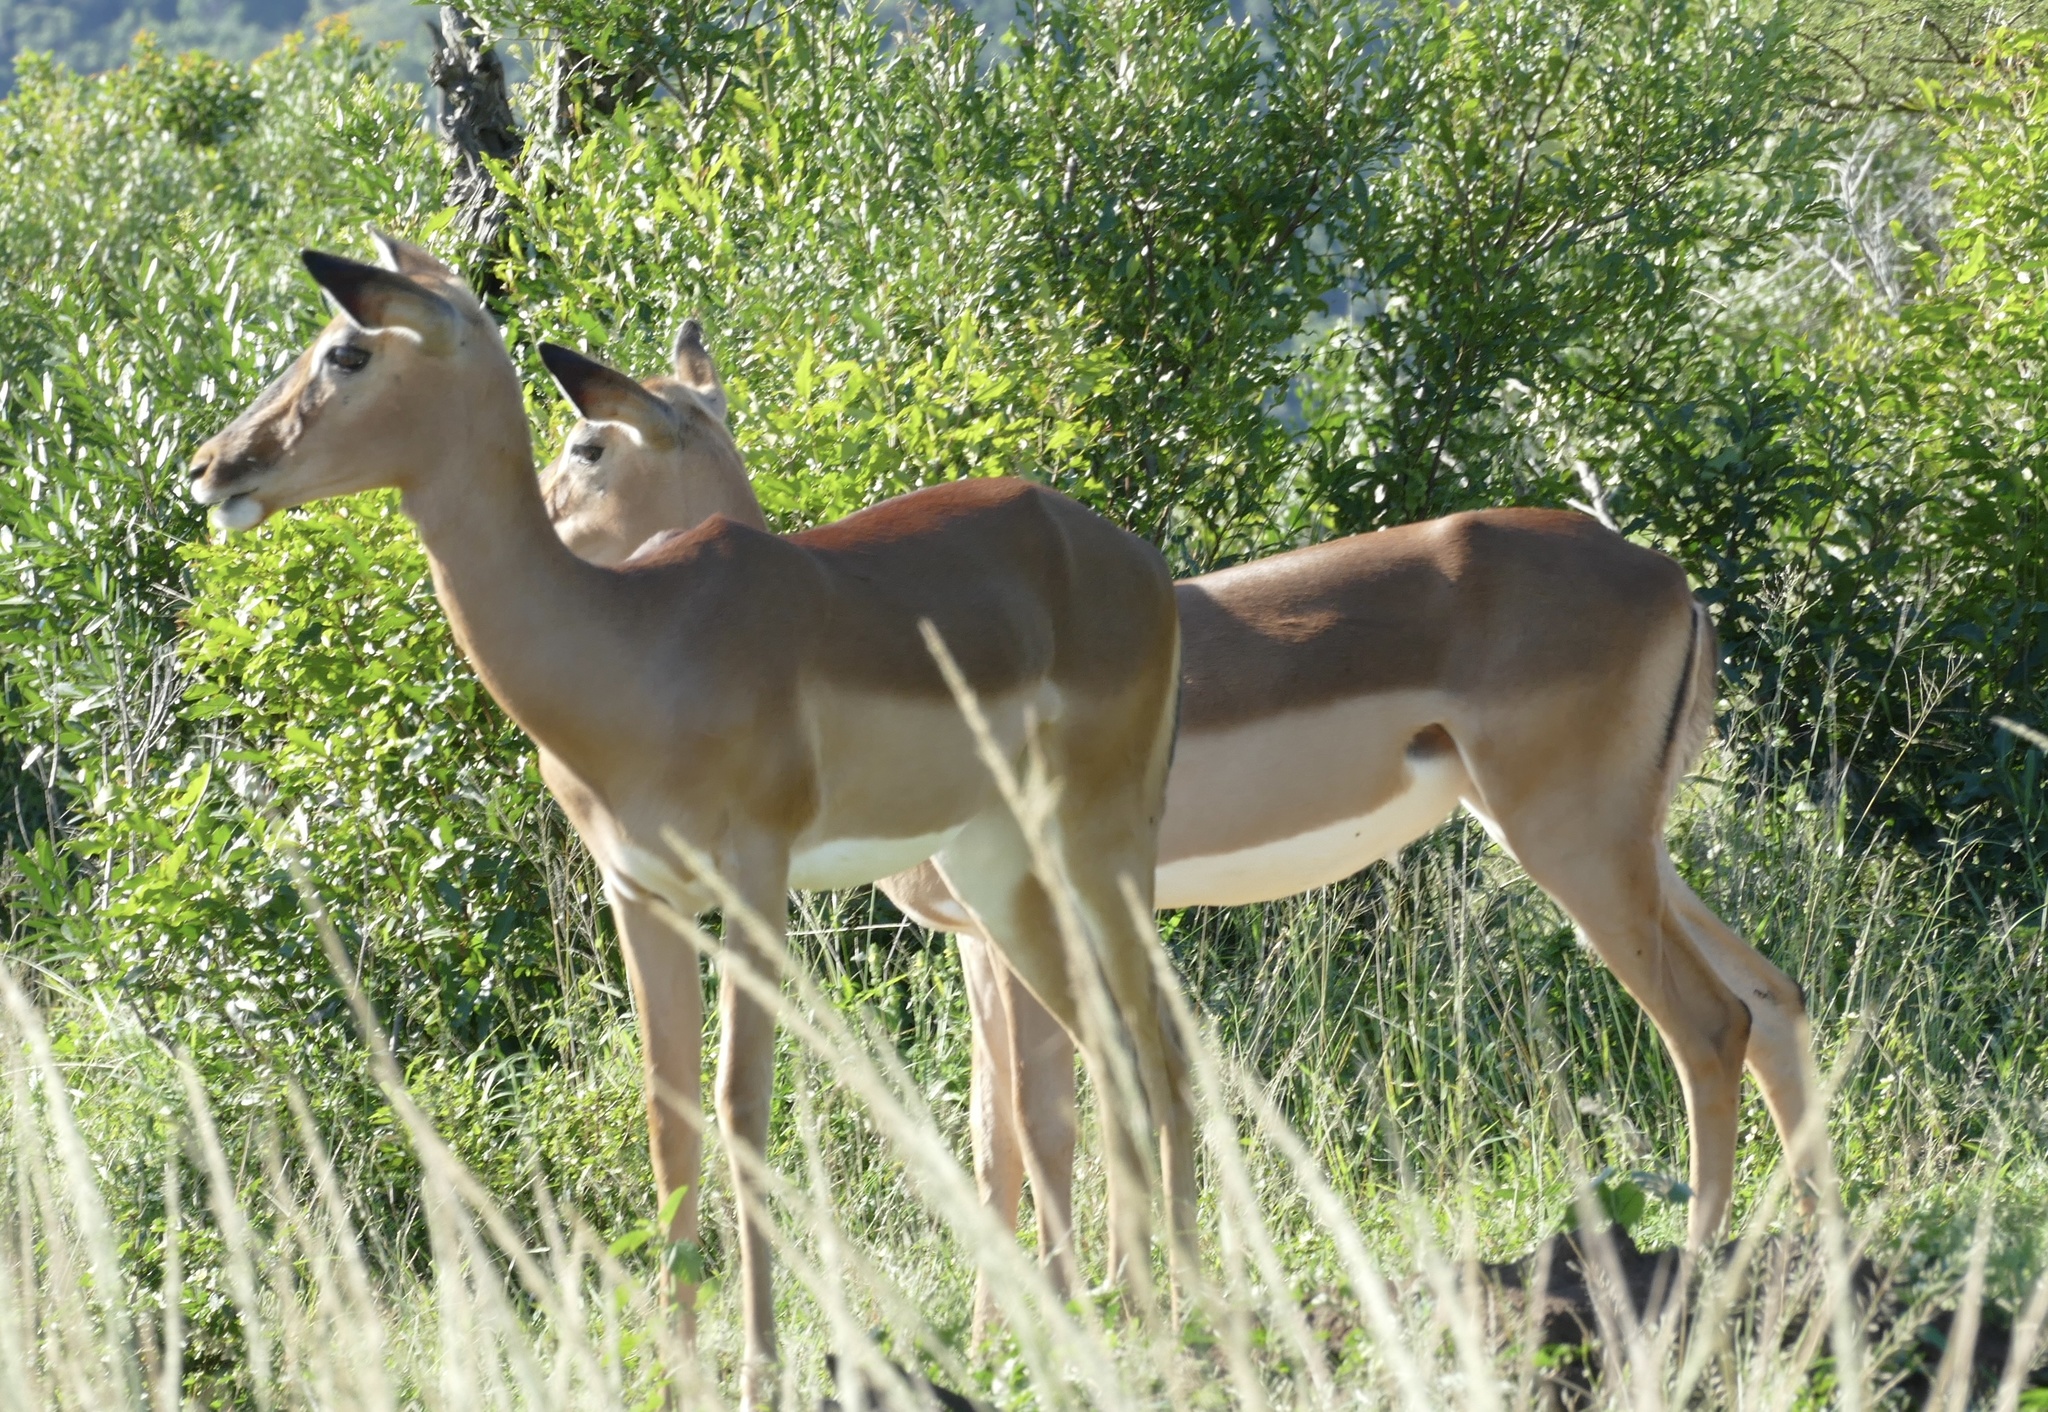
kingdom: Animalia
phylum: Chordata
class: Mammalia
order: Artiodactyla
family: Bovidae
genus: Aepyceros
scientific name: Aepyceros melampus
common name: Impala
